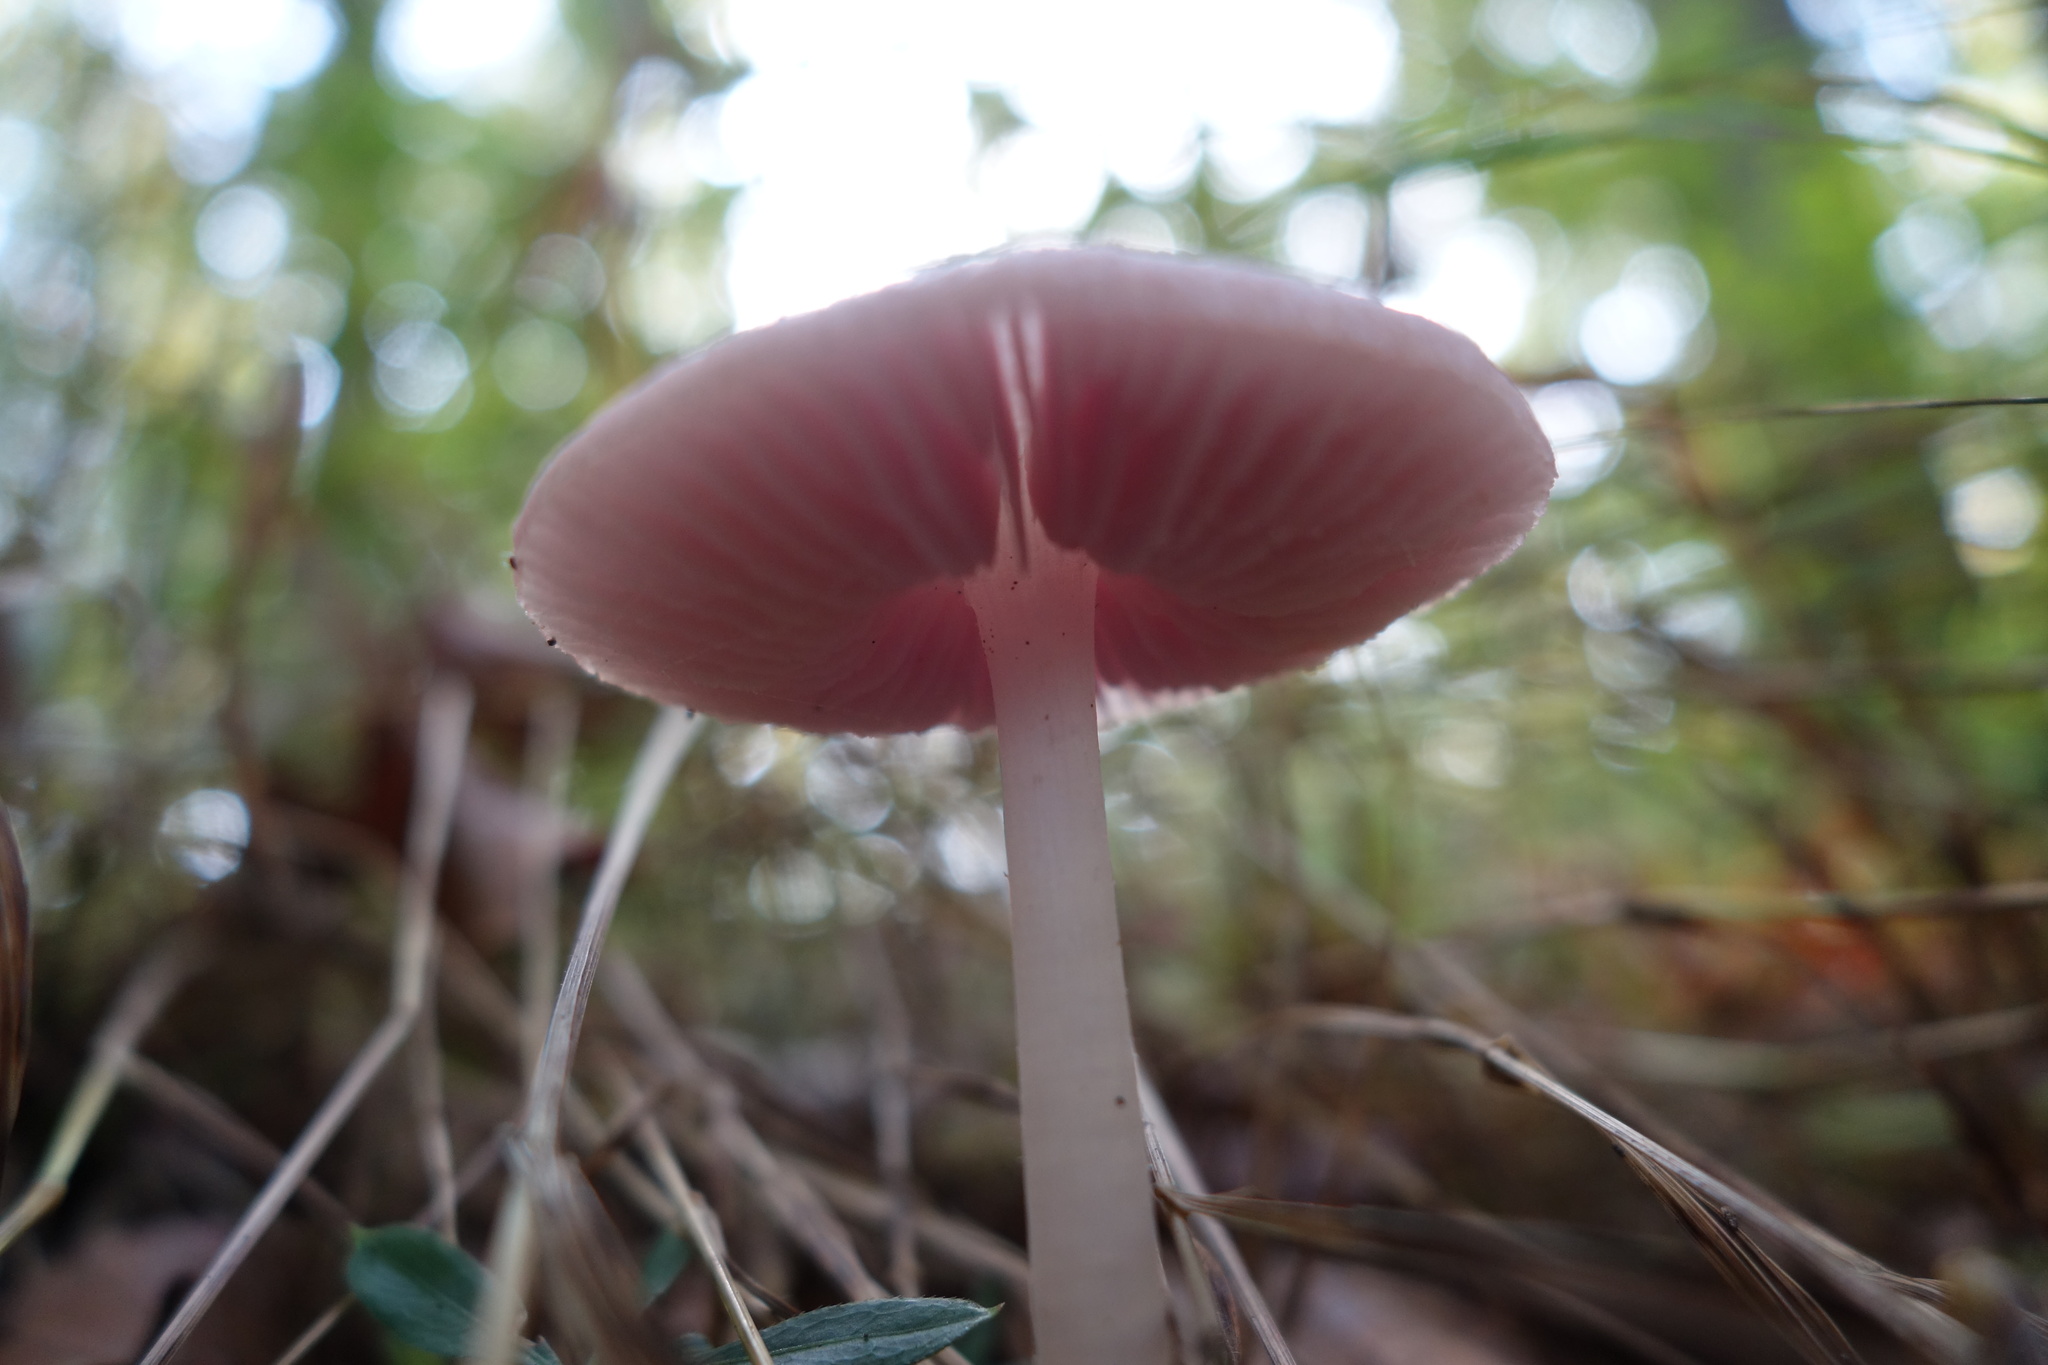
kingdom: Fungi
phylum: Basidiomycota
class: Agaricomycetes
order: Agaricales
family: Mycenaceae
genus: Mycena
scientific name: Mycena rosea
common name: Rosy bonnet
